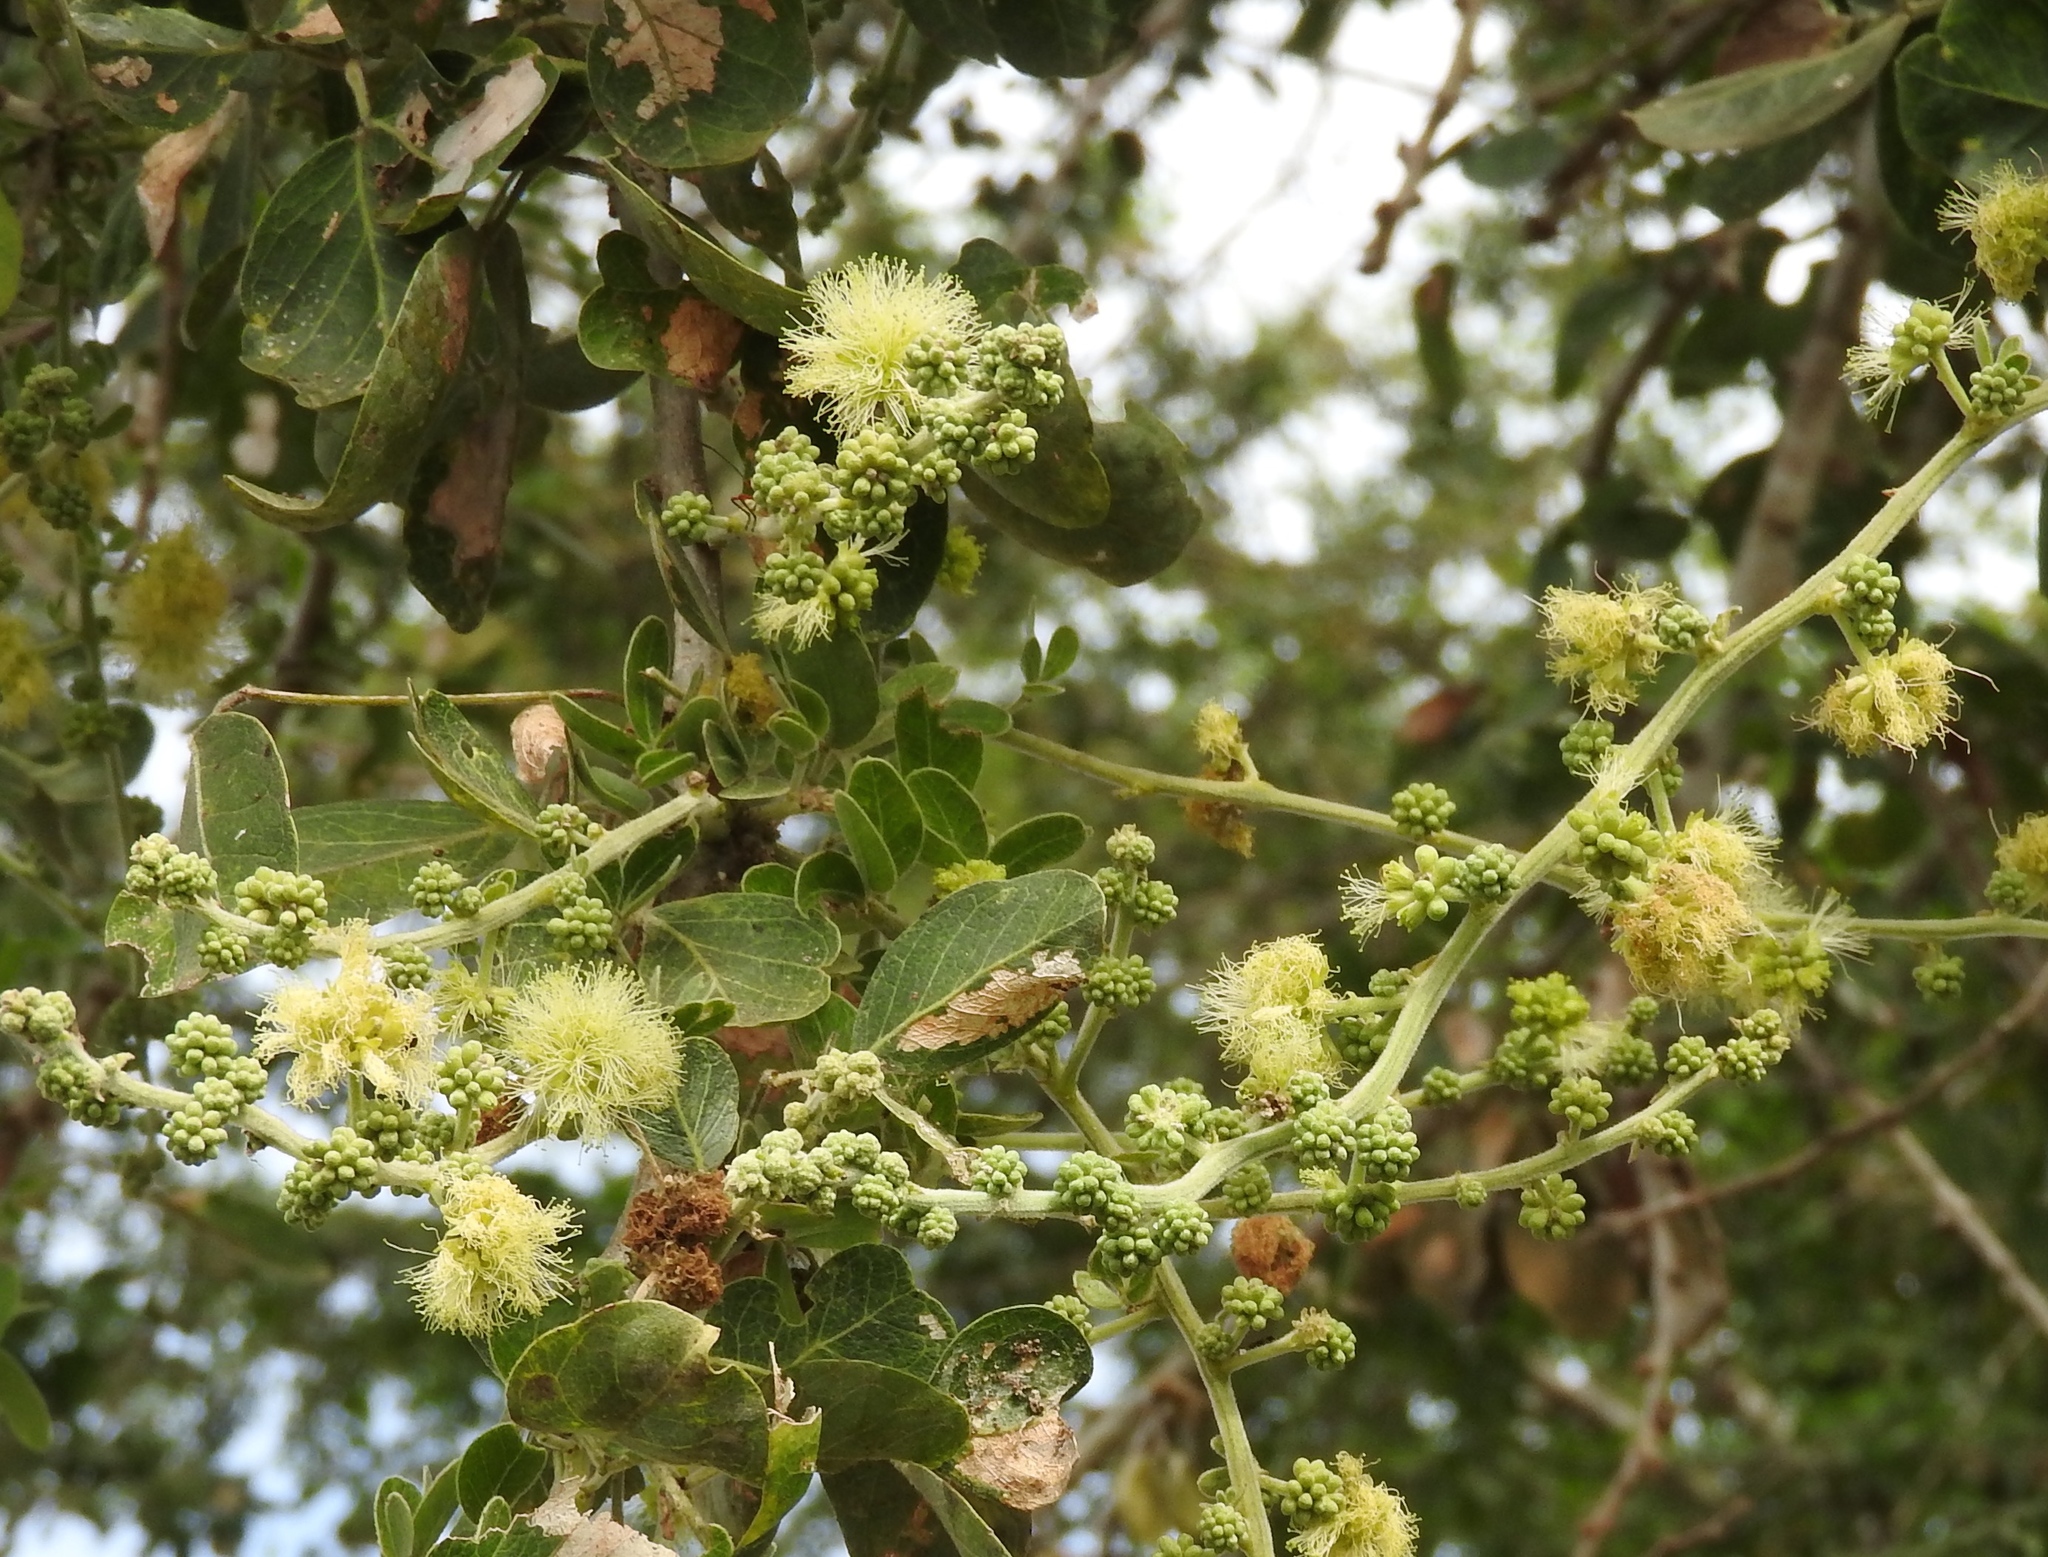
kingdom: Plantae
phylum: Tracheophyta
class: Magnoliopsida
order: Fabales
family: Fabaceae
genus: Pithecellobium
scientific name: Pithecellobium dulce
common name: Monkeypod
